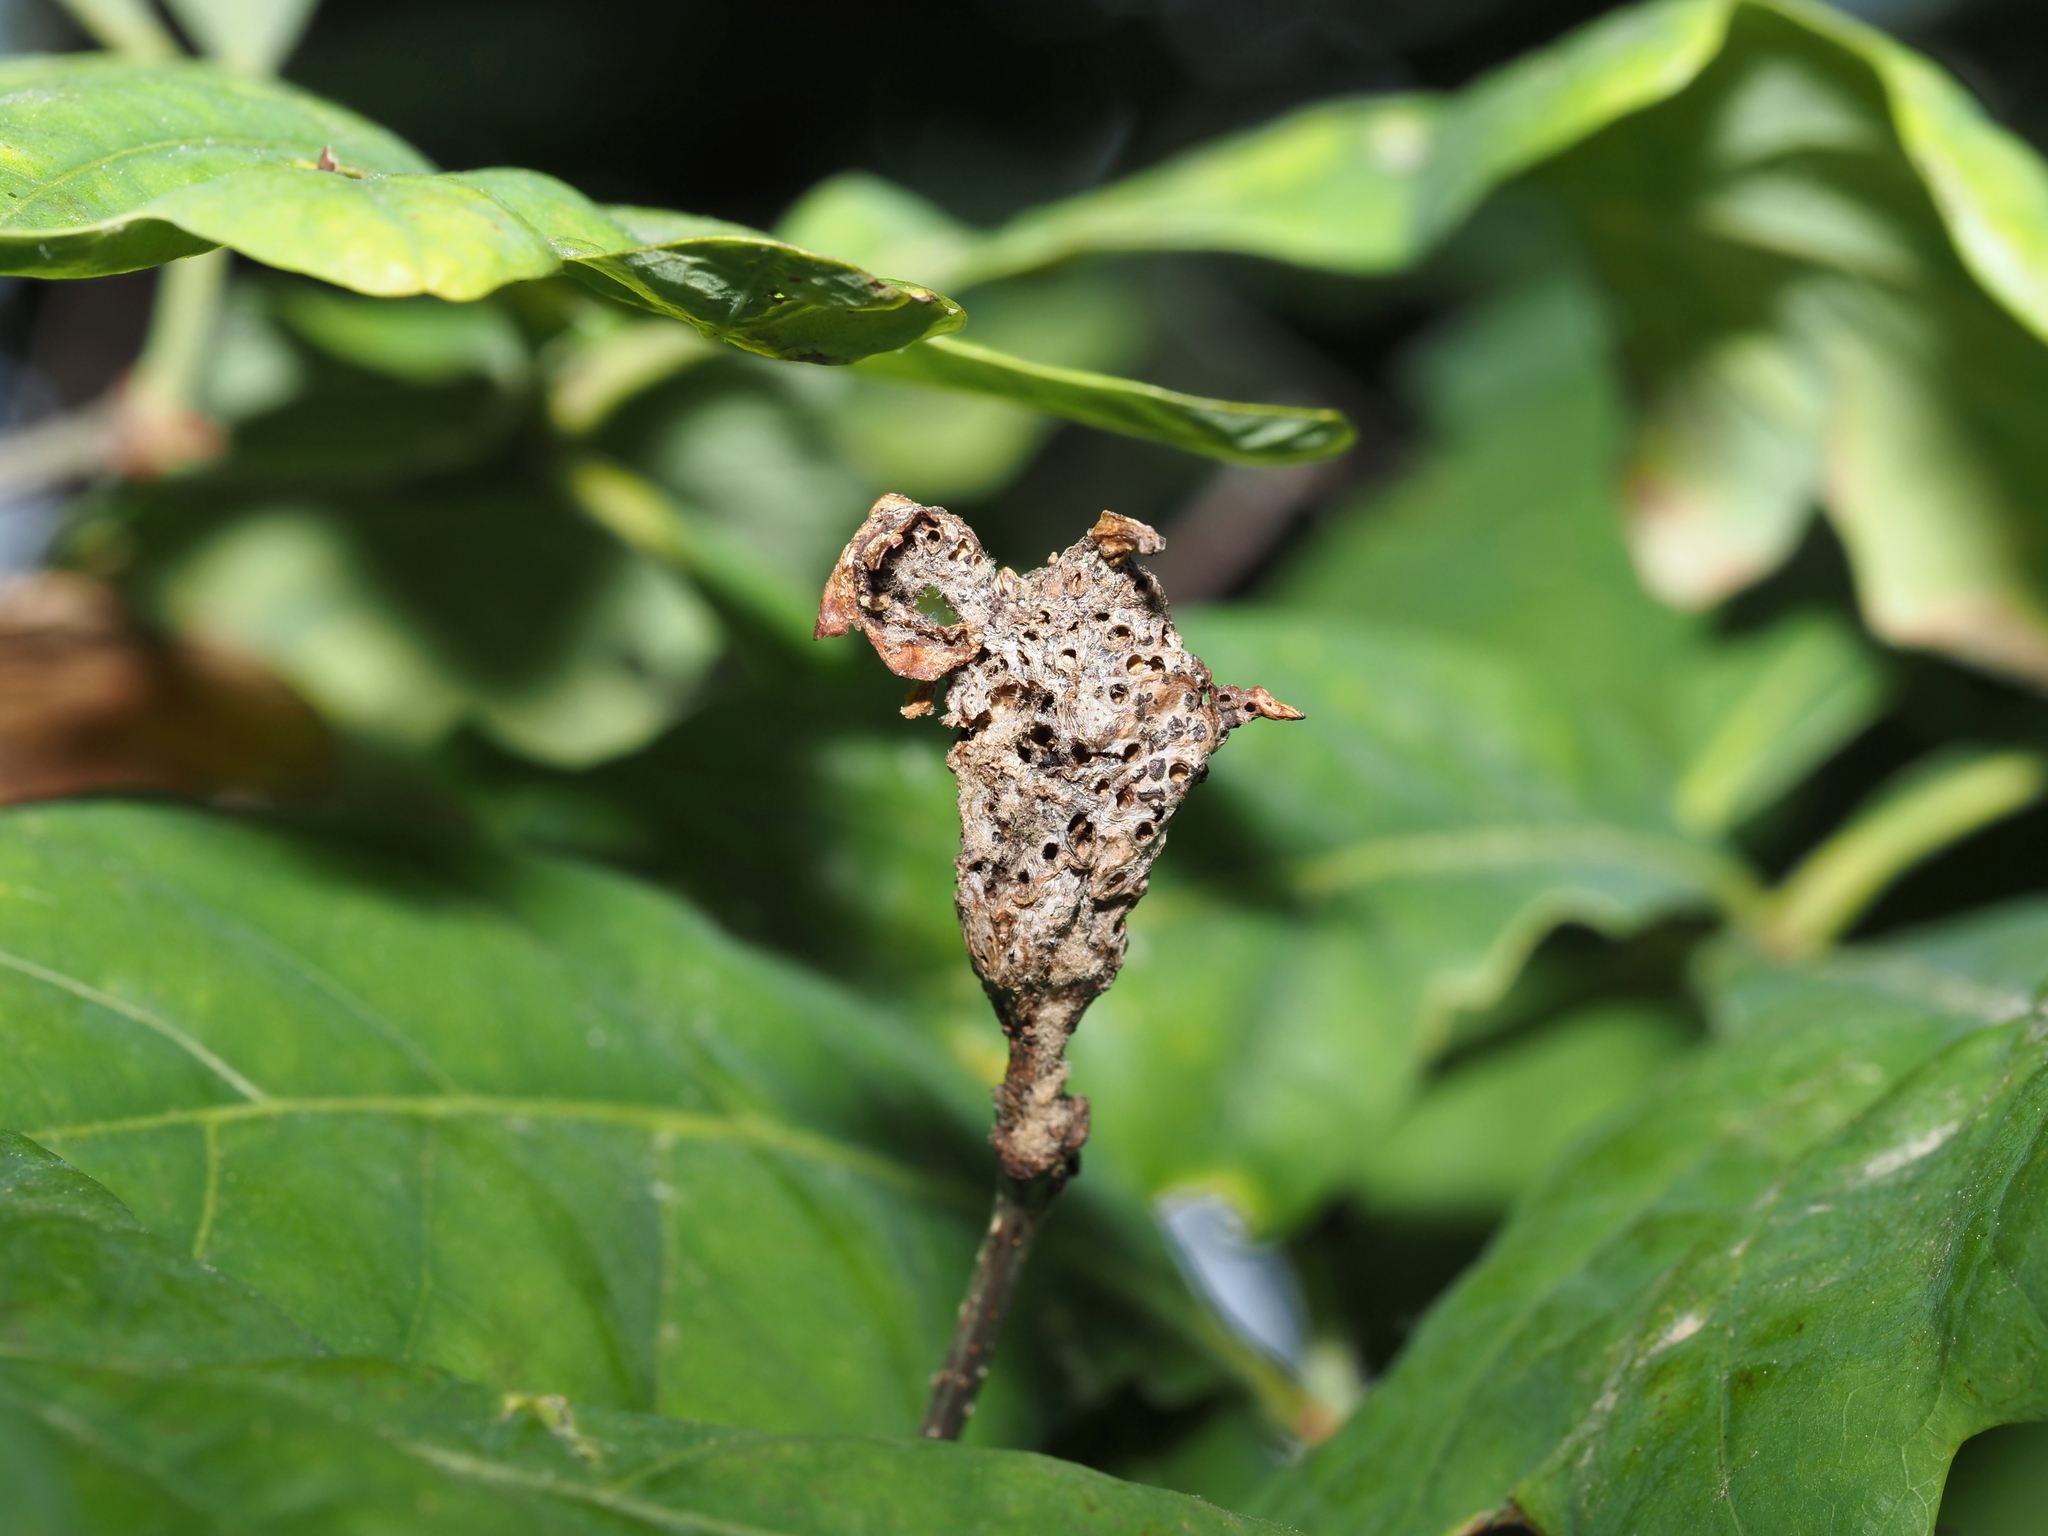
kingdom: Animalia
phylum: Arthropoda
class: Insecta
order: Hymenoptera
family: Cynipidae
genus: Neuroterus
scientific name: Neuroterus quercusbaccarum
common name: Common spangle gall
